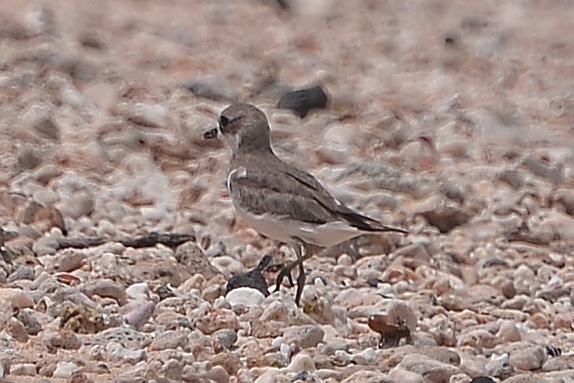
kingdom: Animalia
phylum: Chordata
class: Aves
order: Charadriiformes
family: Charadriidae
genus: Anarhynchus
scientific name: Anarhynchus
